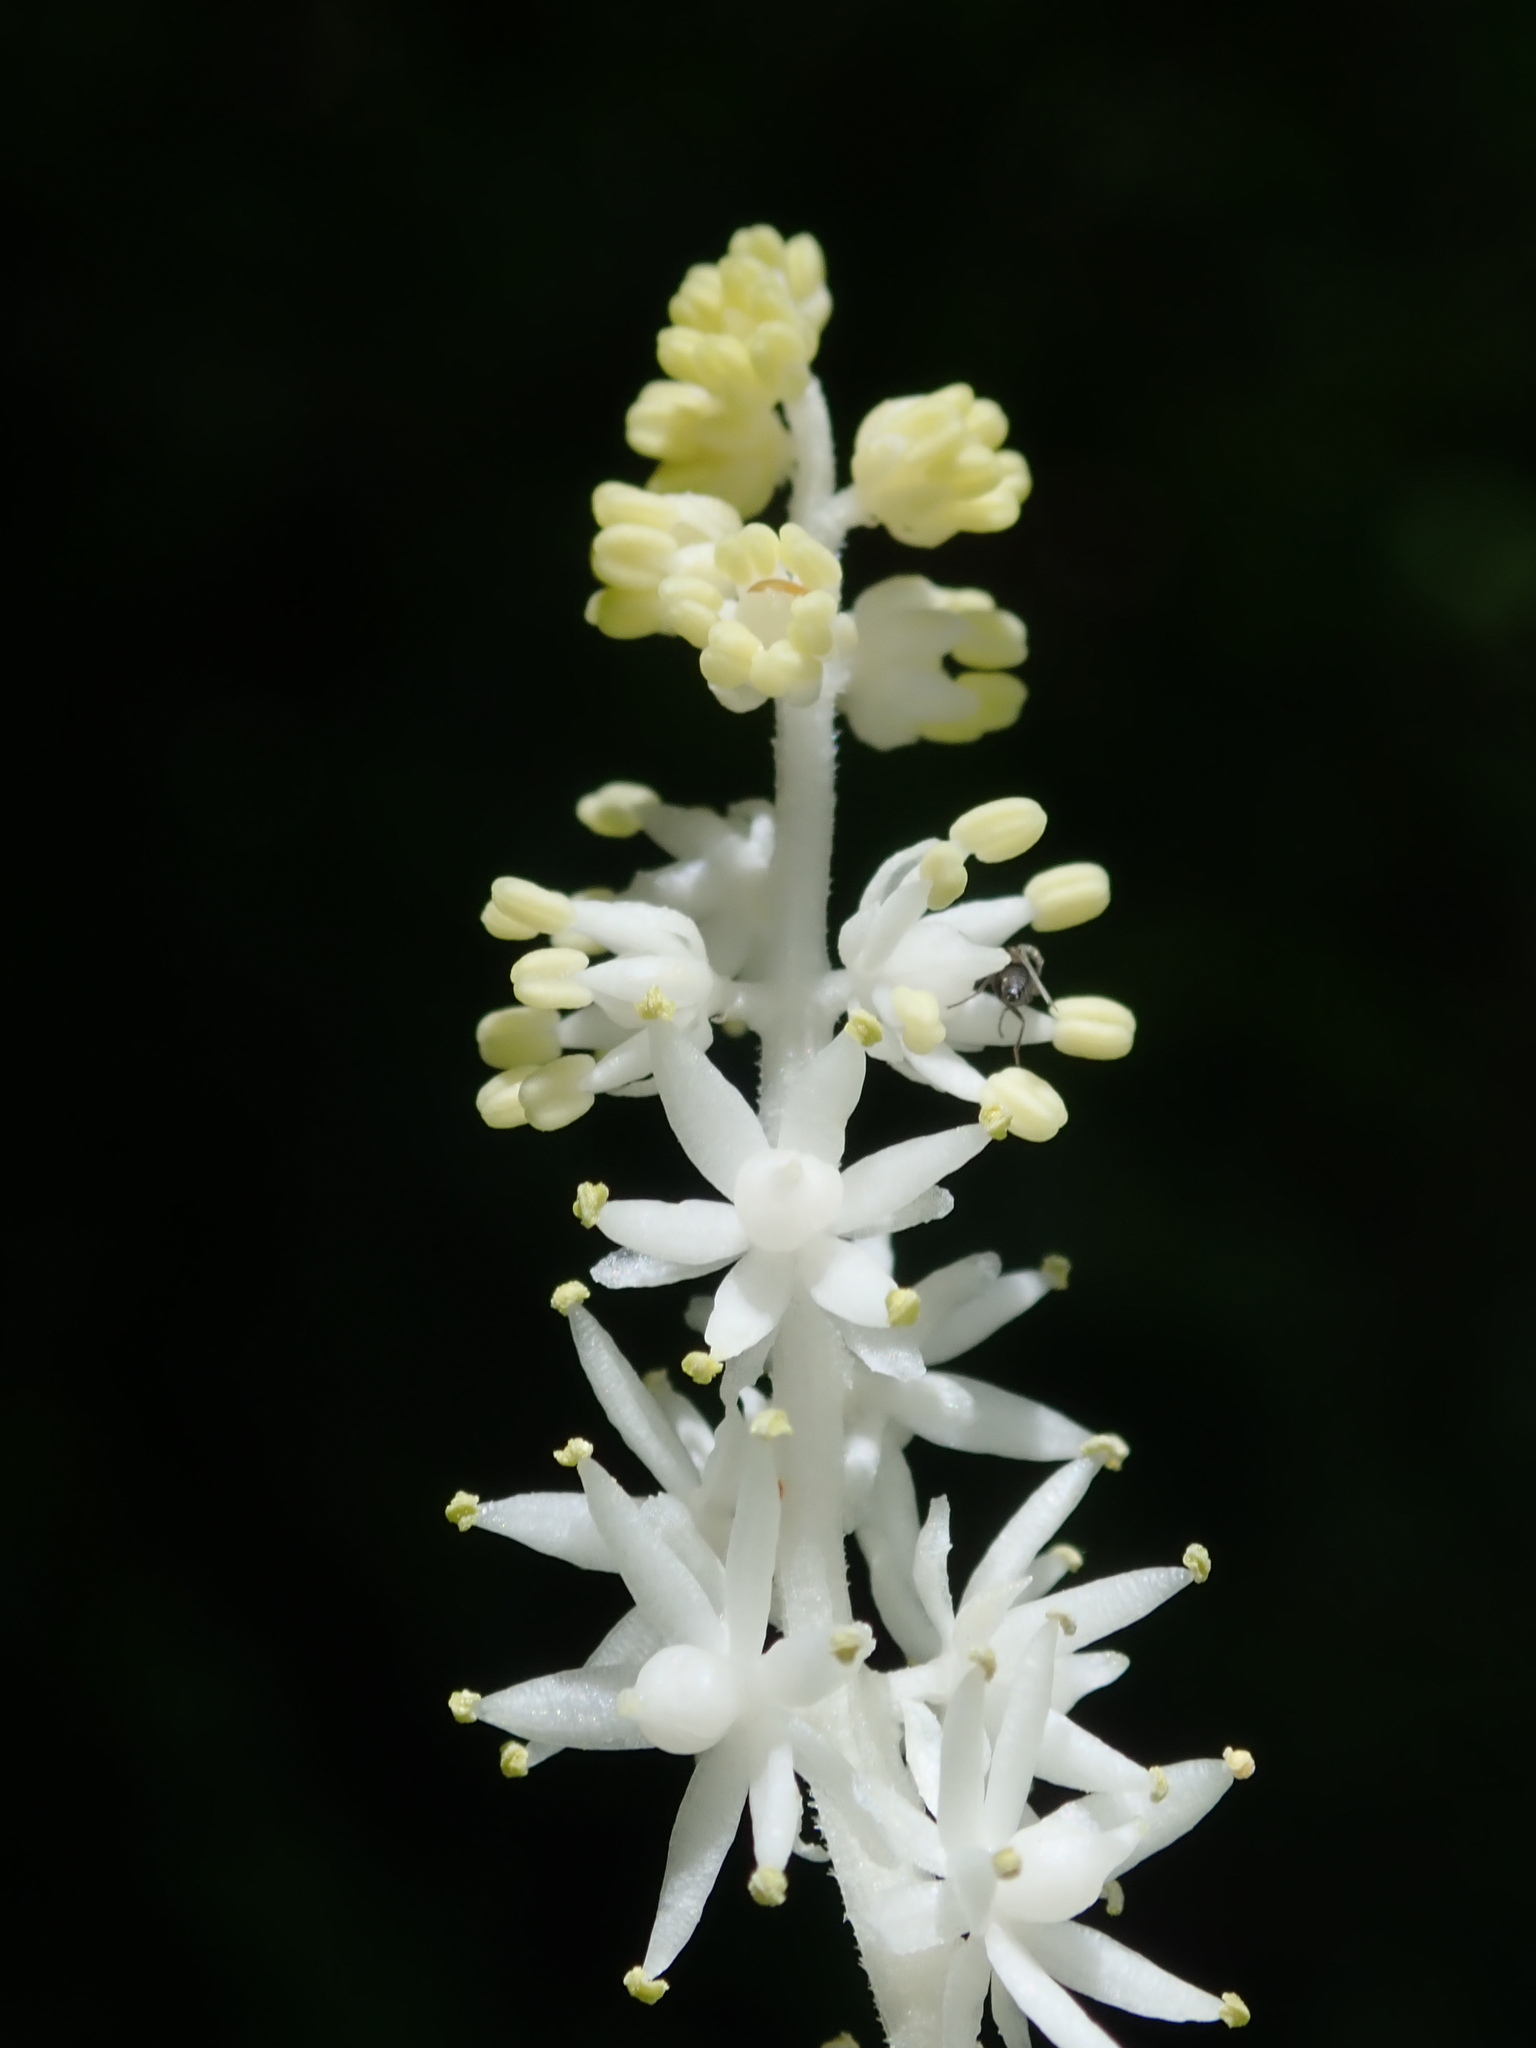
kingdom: Plantae
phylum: Tracheophyta
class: Liliopsida
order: Asparagales
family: Asparagaceae
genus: Maianthemum
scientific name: Maianthemum racemosum
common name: False spikenard
